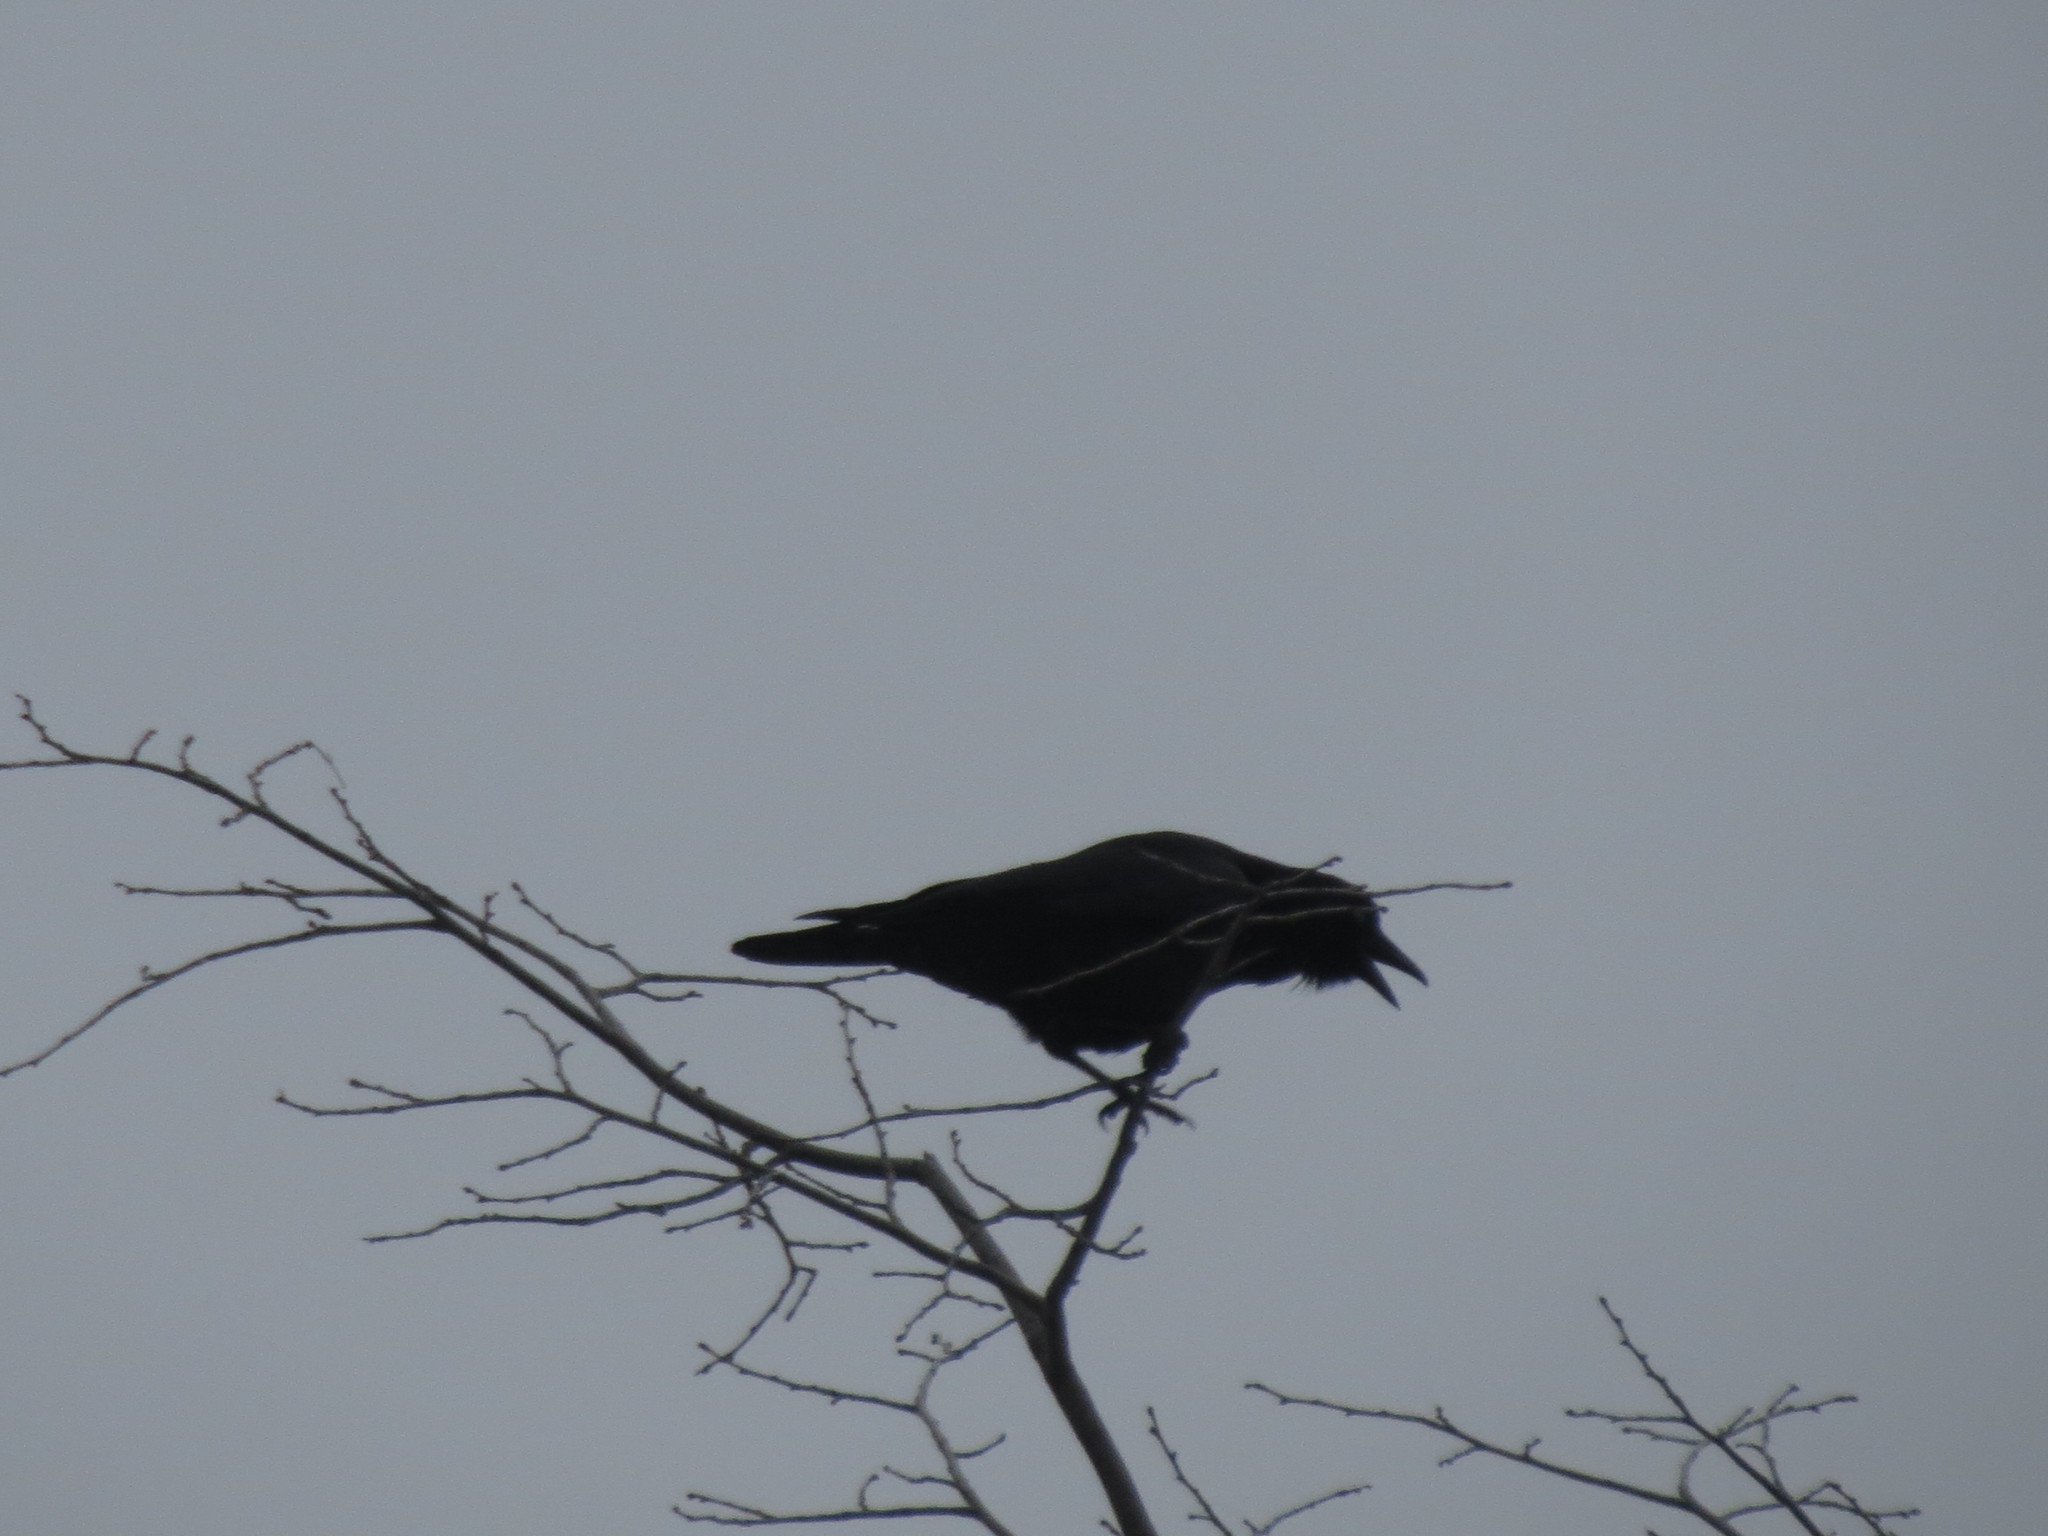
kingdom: Animalia
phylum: Chordata
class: Aves
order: Passeriformes
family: Corvidae
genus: Corvus
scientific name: Corvus brachyrhynchos
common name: American crow
